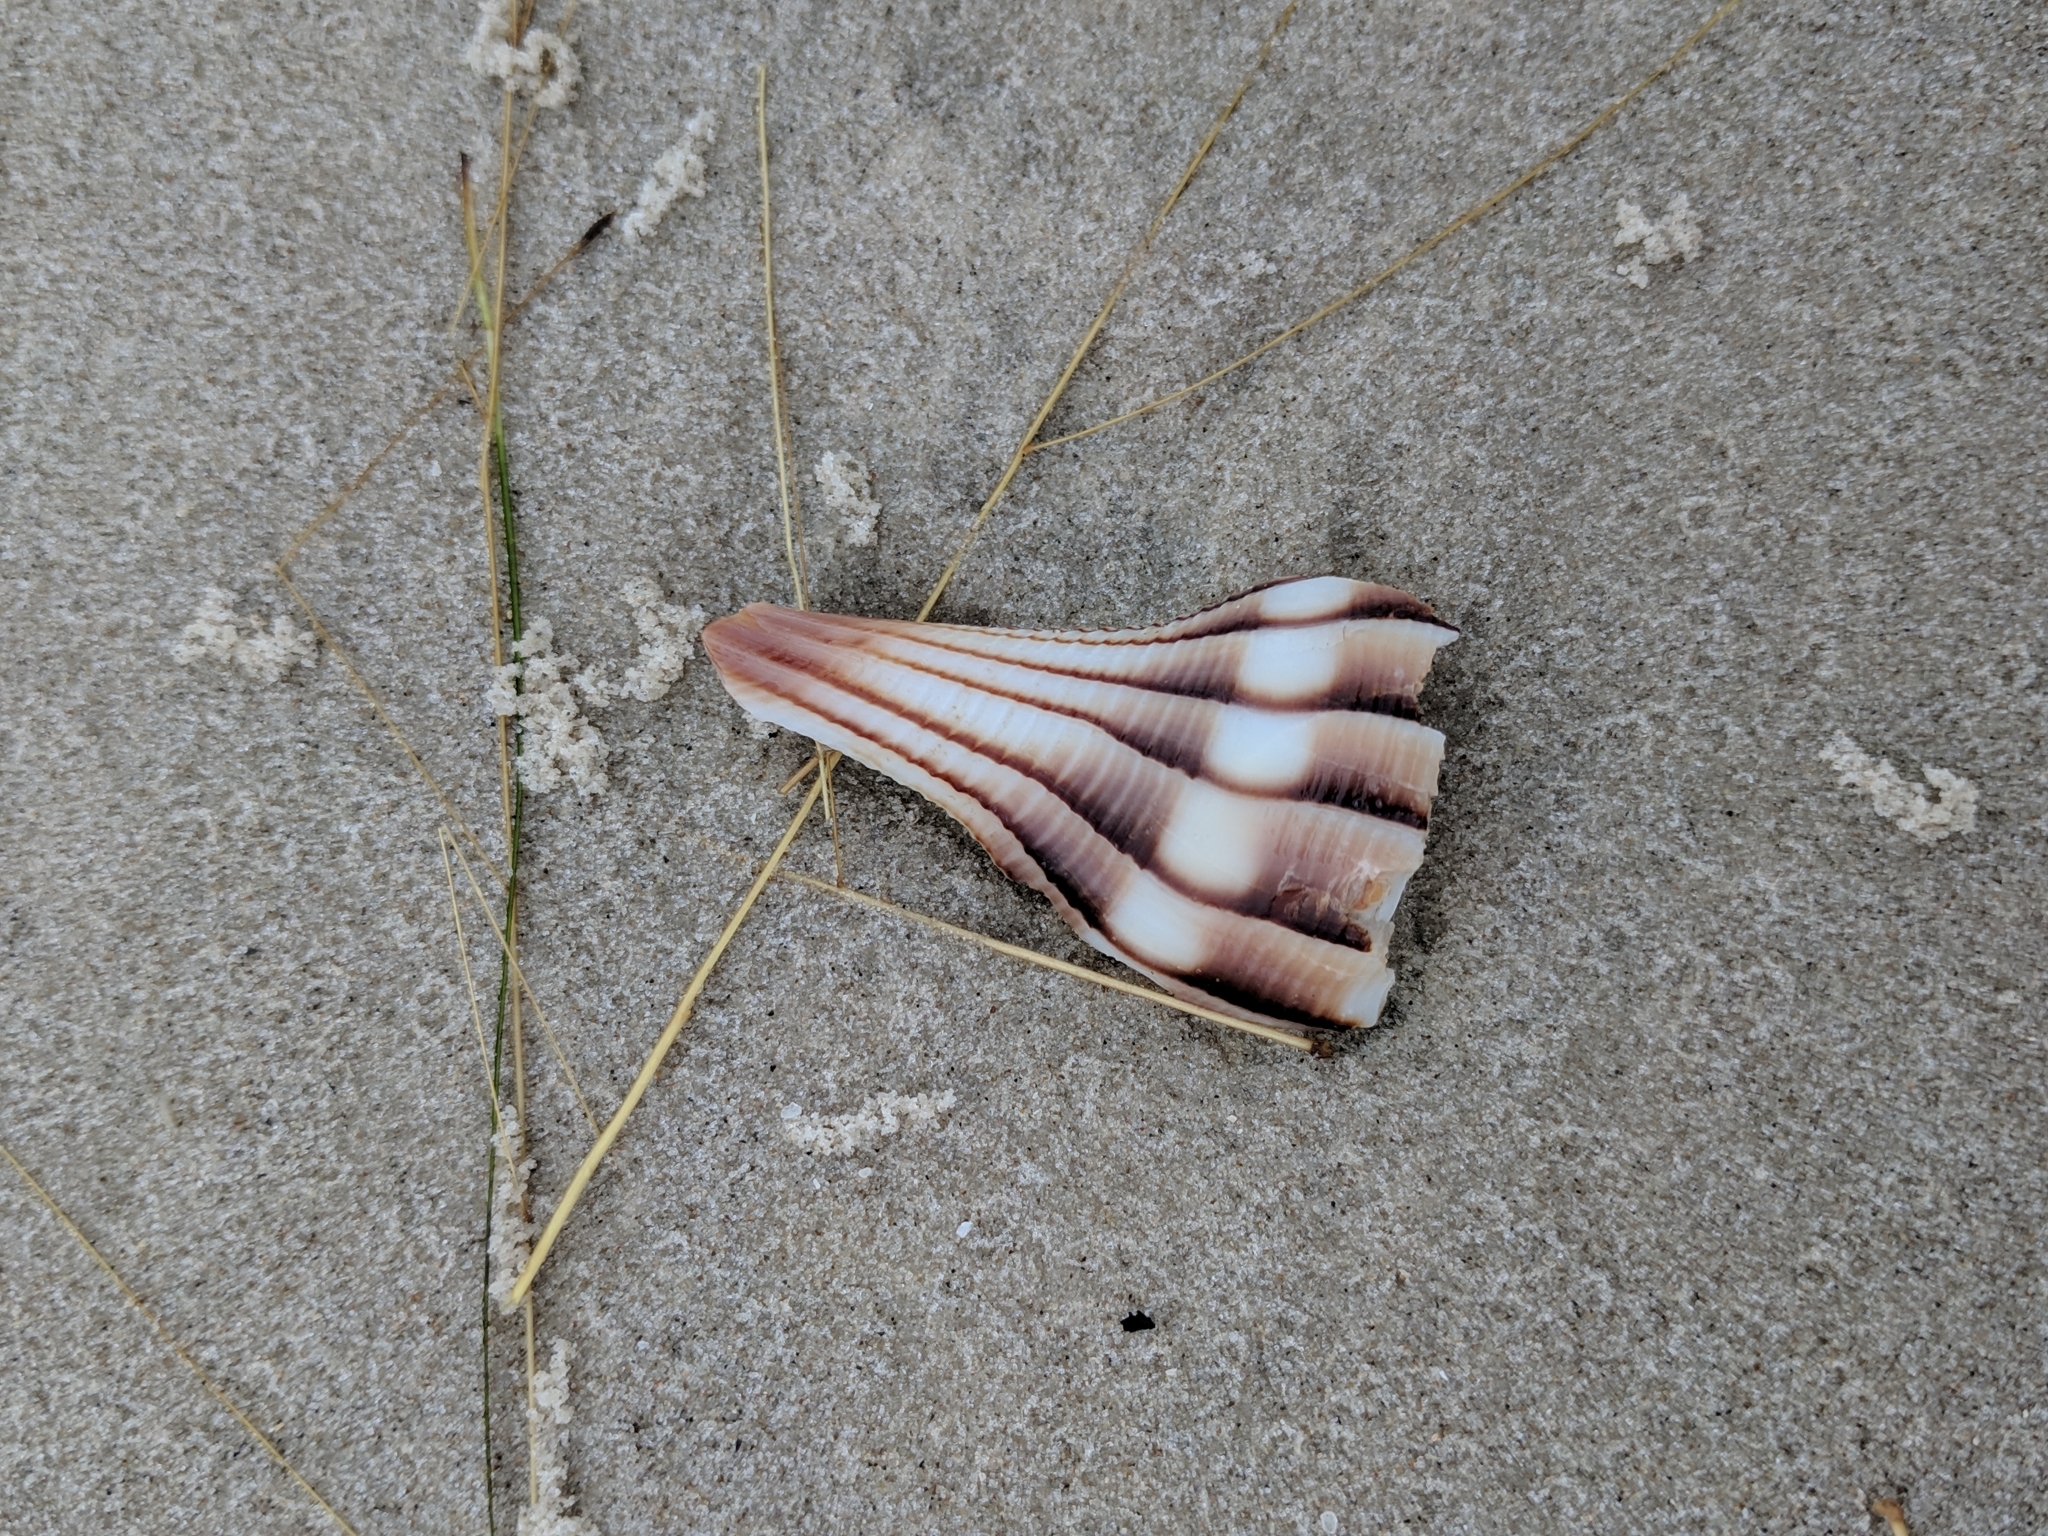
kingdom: Animalia
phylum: Mollusca
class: Gastropoda
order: Neogastropoda
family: Busyconidae
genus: Sinistrofulgur
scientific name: Sinistrofulgur pulleyi
